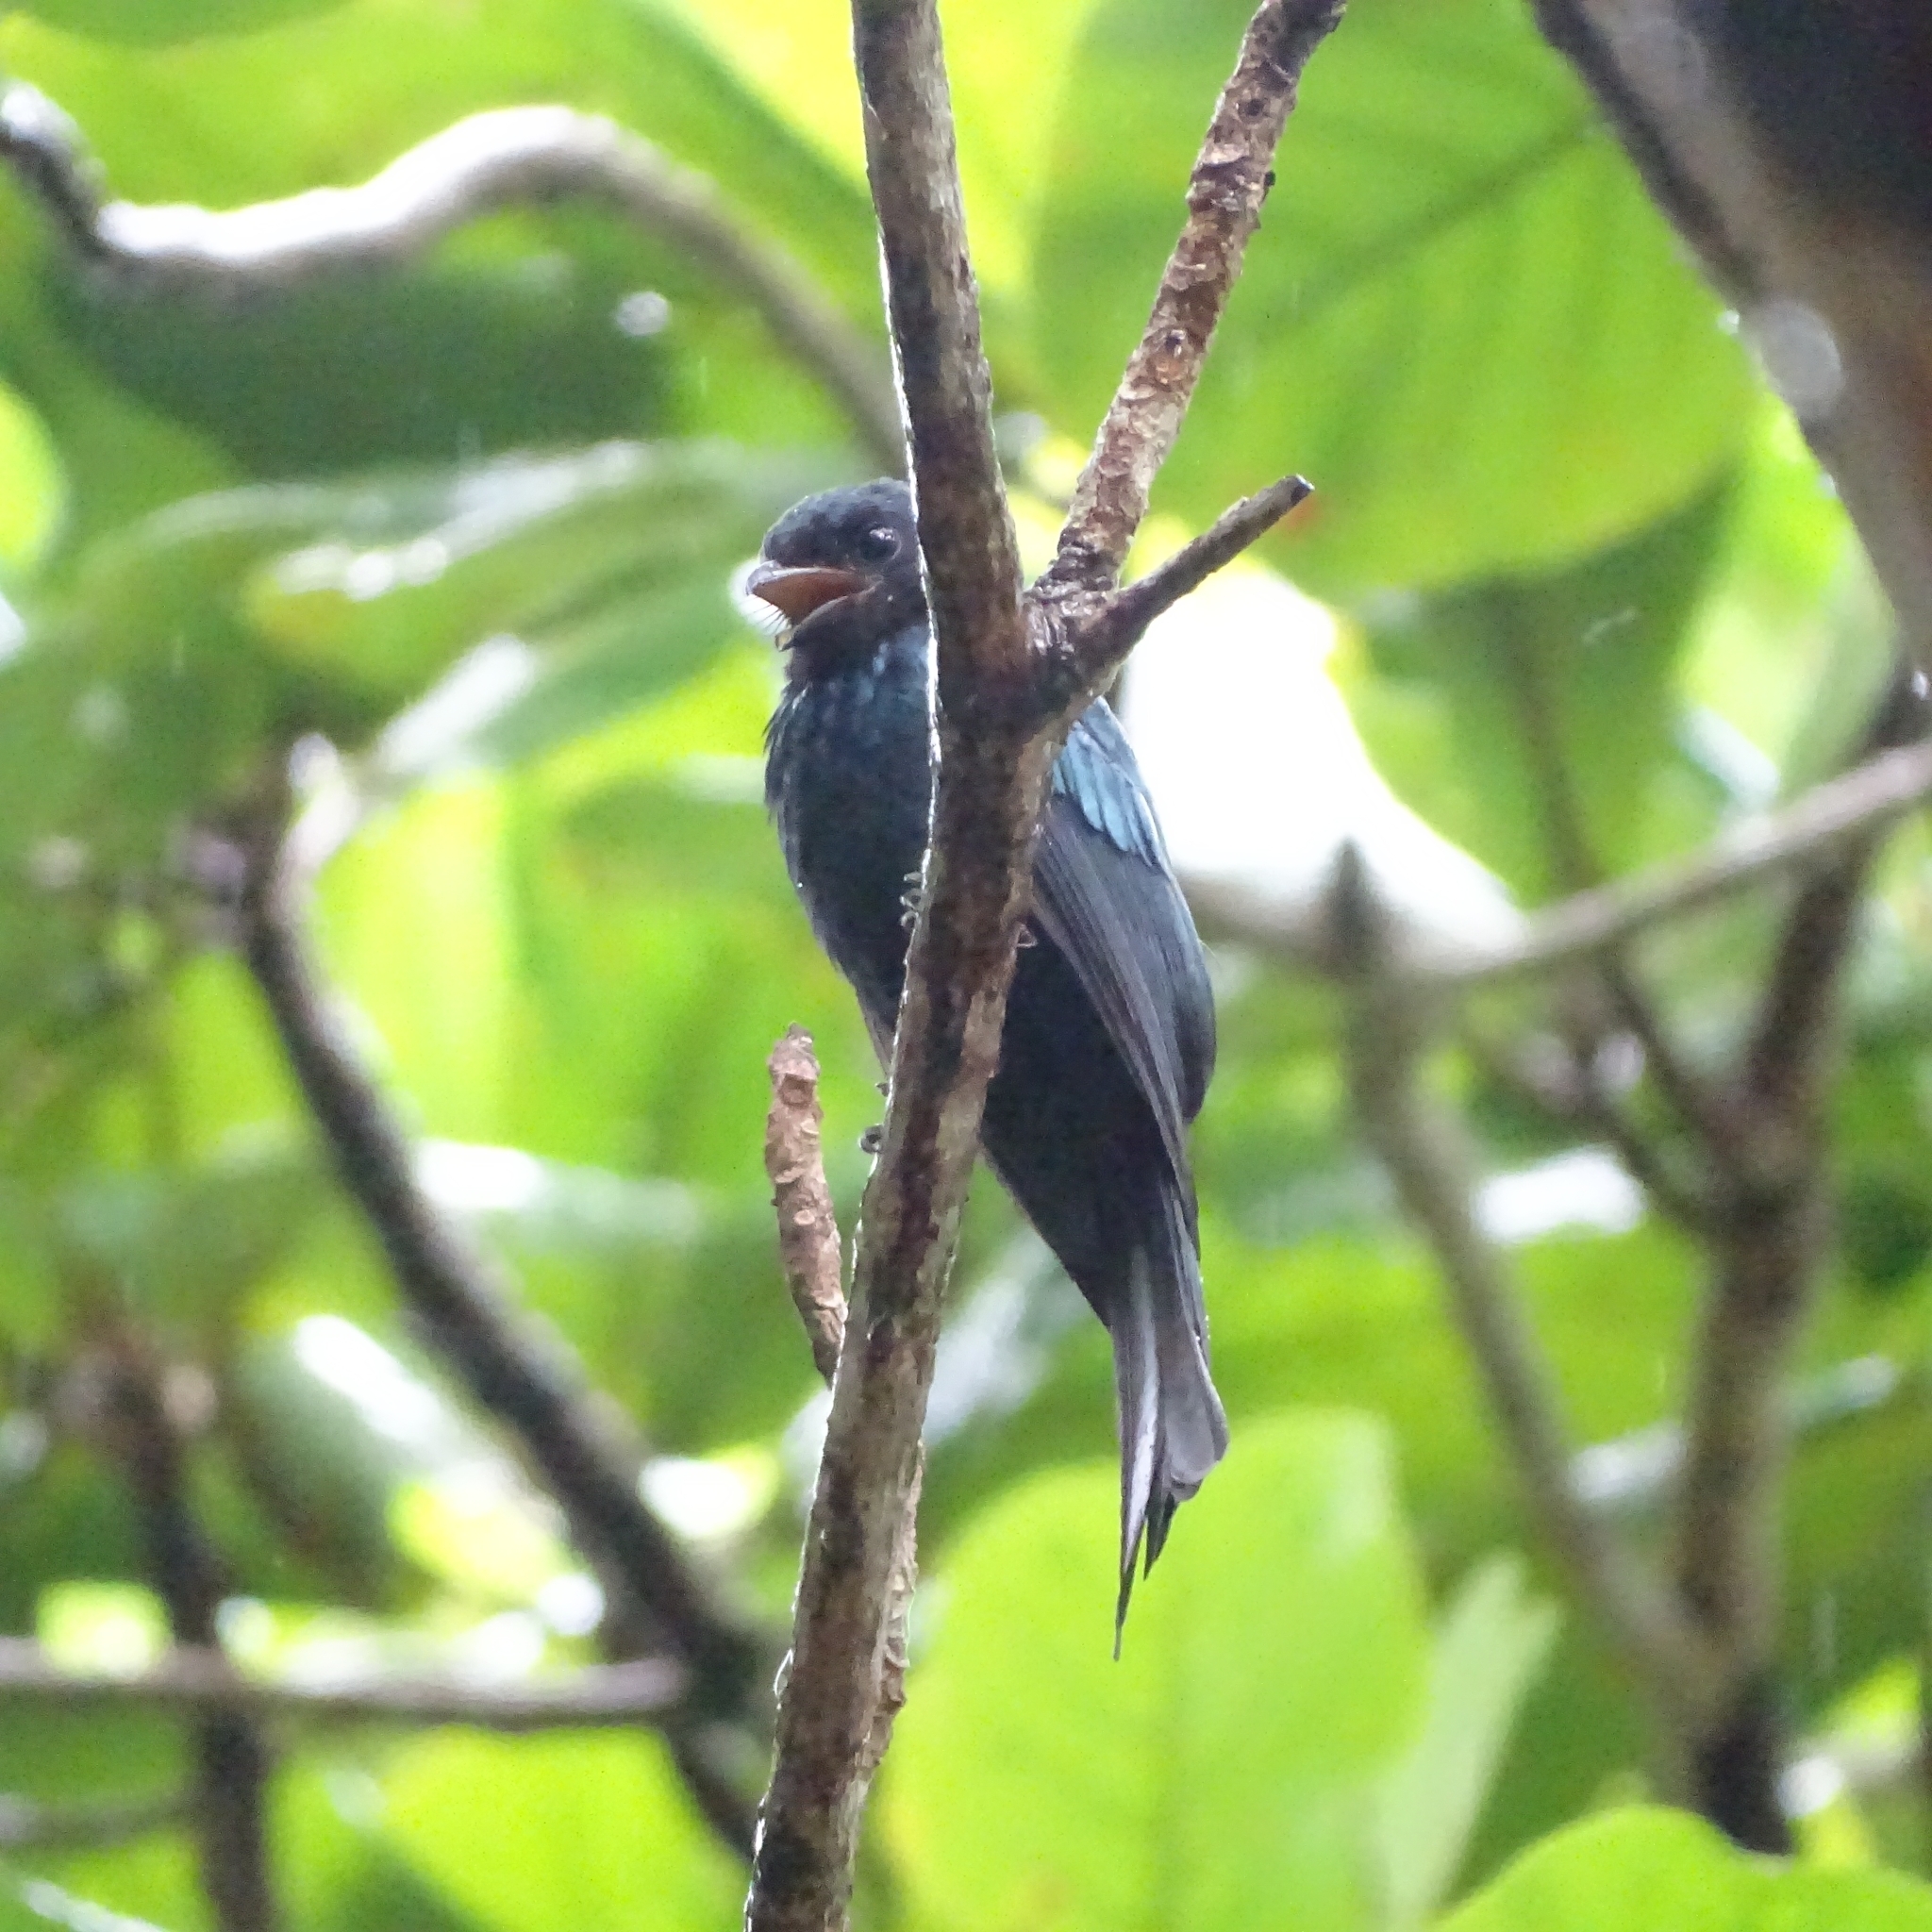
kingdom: Animalia
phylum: Chordata
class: Aves
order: Passeriformes
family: Dicruridae
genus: Dicrurus
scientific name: Dicrurus aeneus
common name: Bronzed drongo
